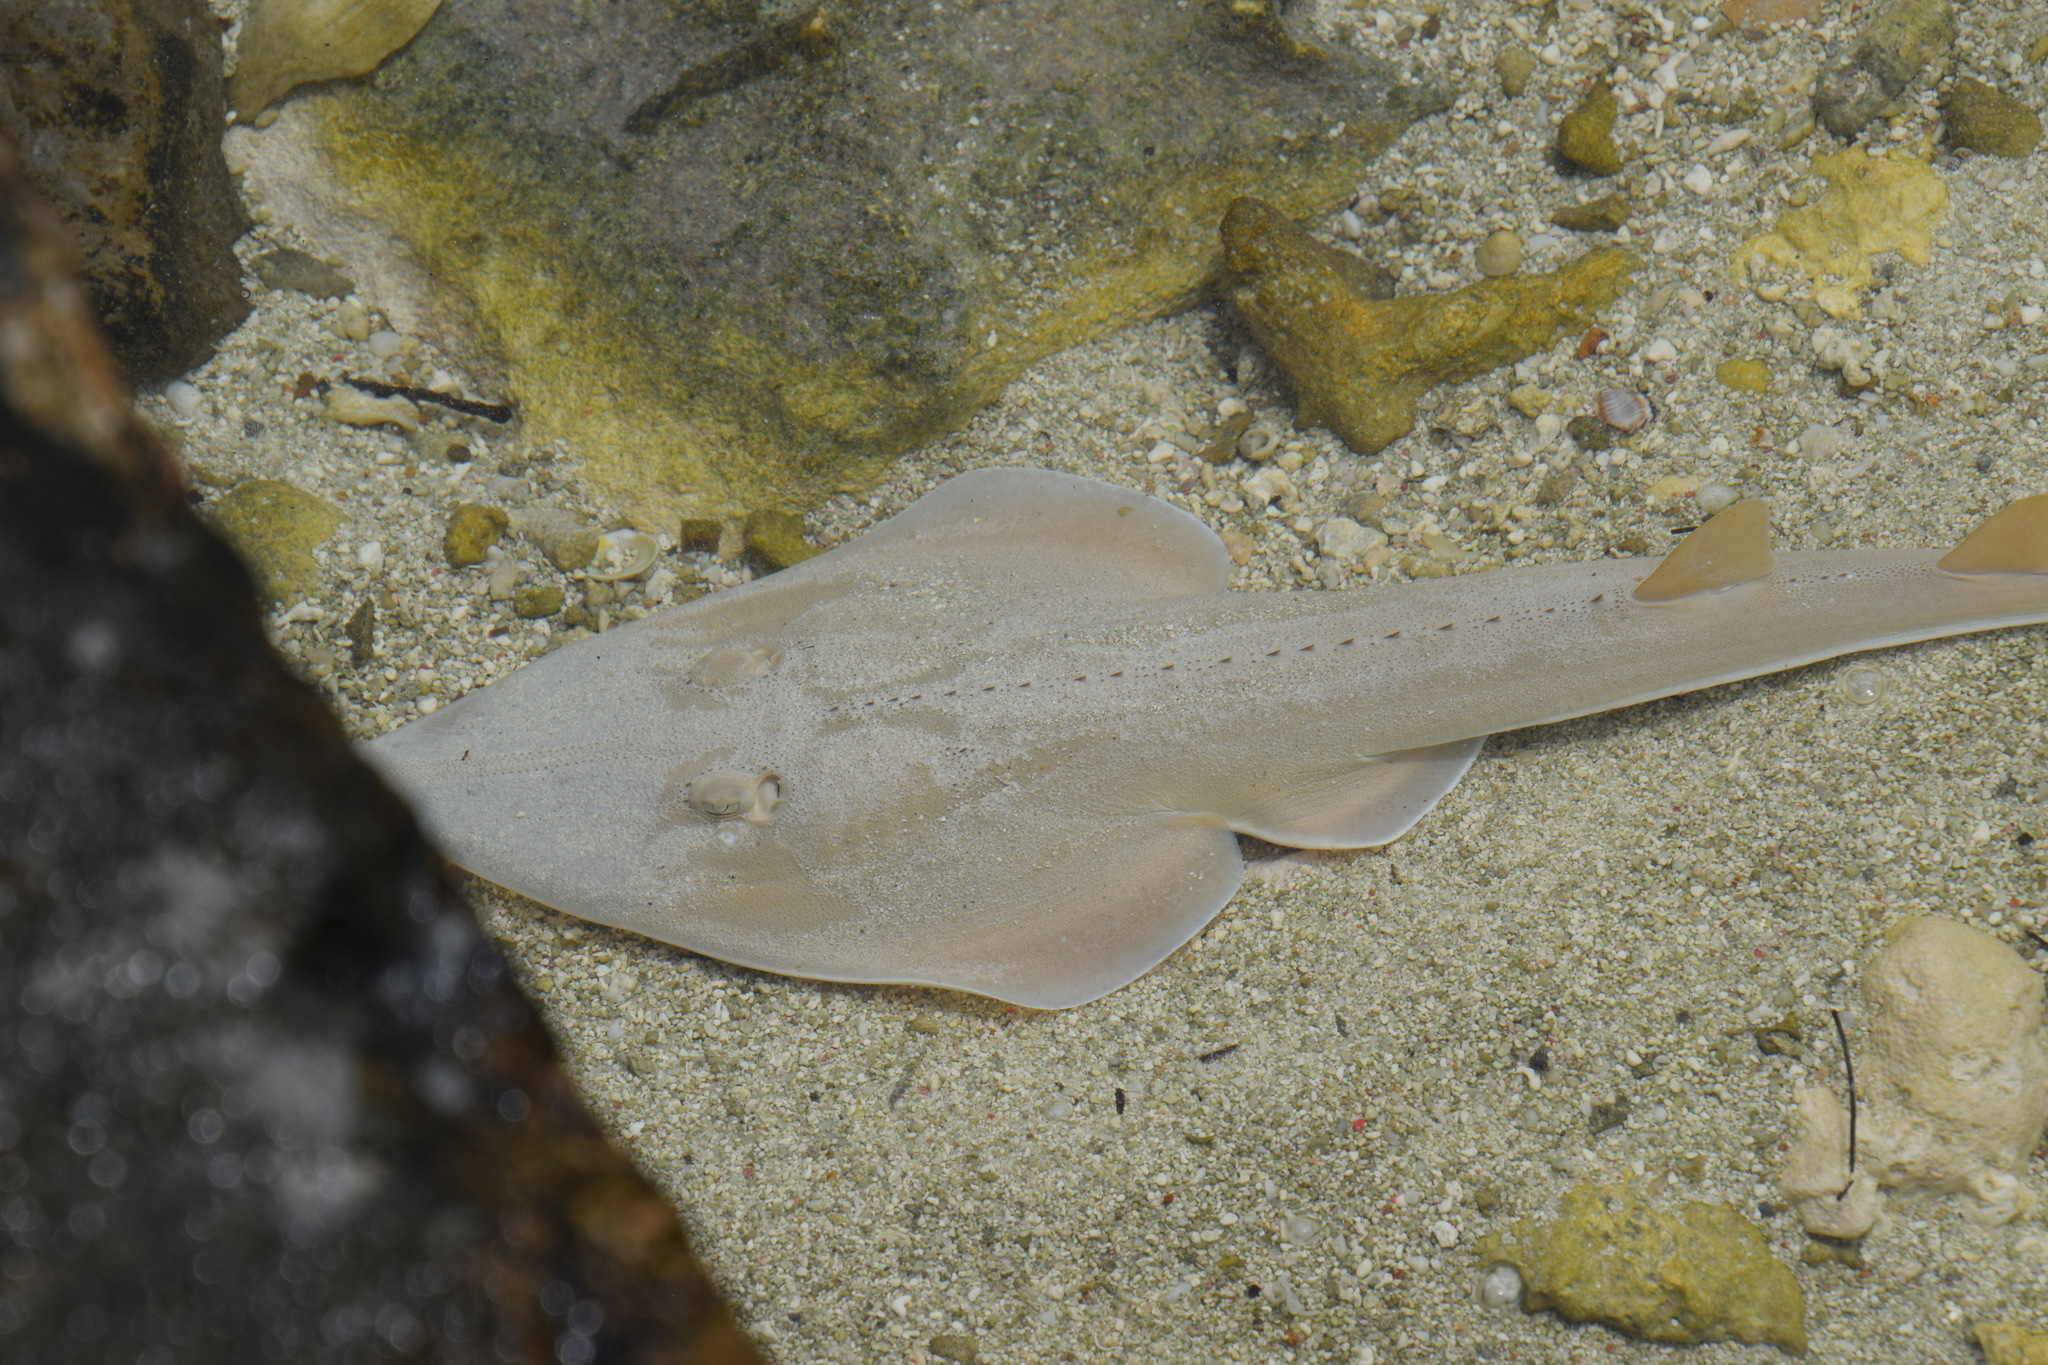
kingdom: Animalia
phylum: Chordata
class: Elasmobranchii
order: Rhinopristiformes
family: Glaucostegidae
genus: Glaucostegus
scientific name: Glaucostegus typus
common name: Giant shovelnose ray
